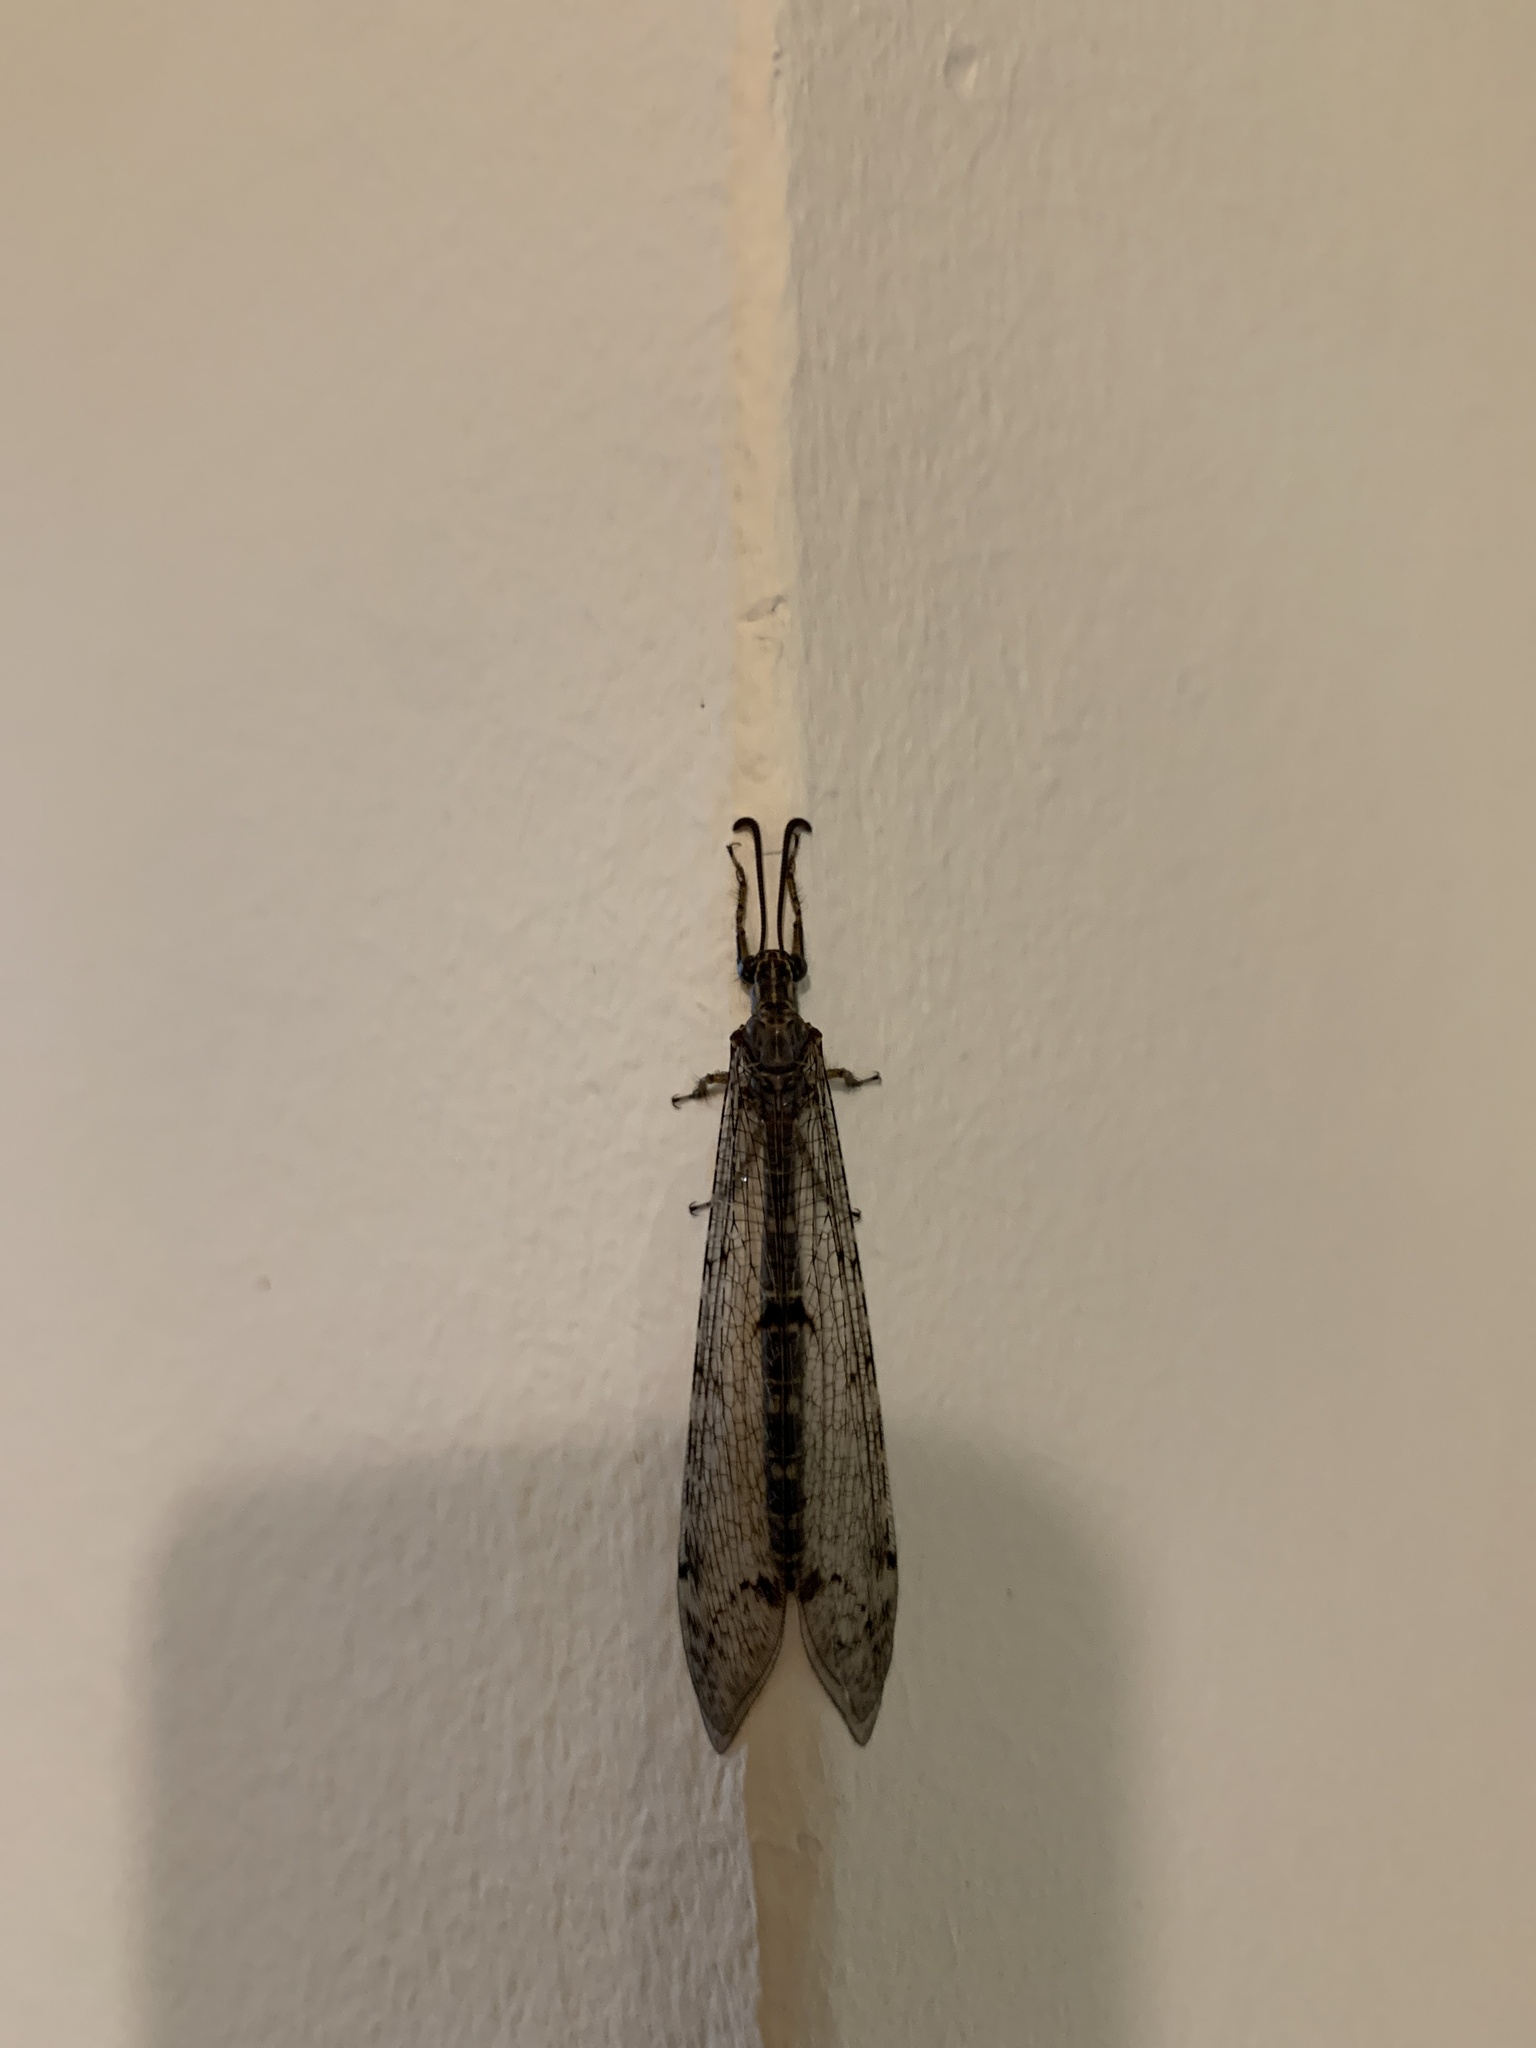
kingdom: Animalia
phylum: Arthropoda
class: Insecta
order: Neuroptera
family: Myrmeleontidae
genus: Distoleon
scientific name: Distoleon tetragrammicus
